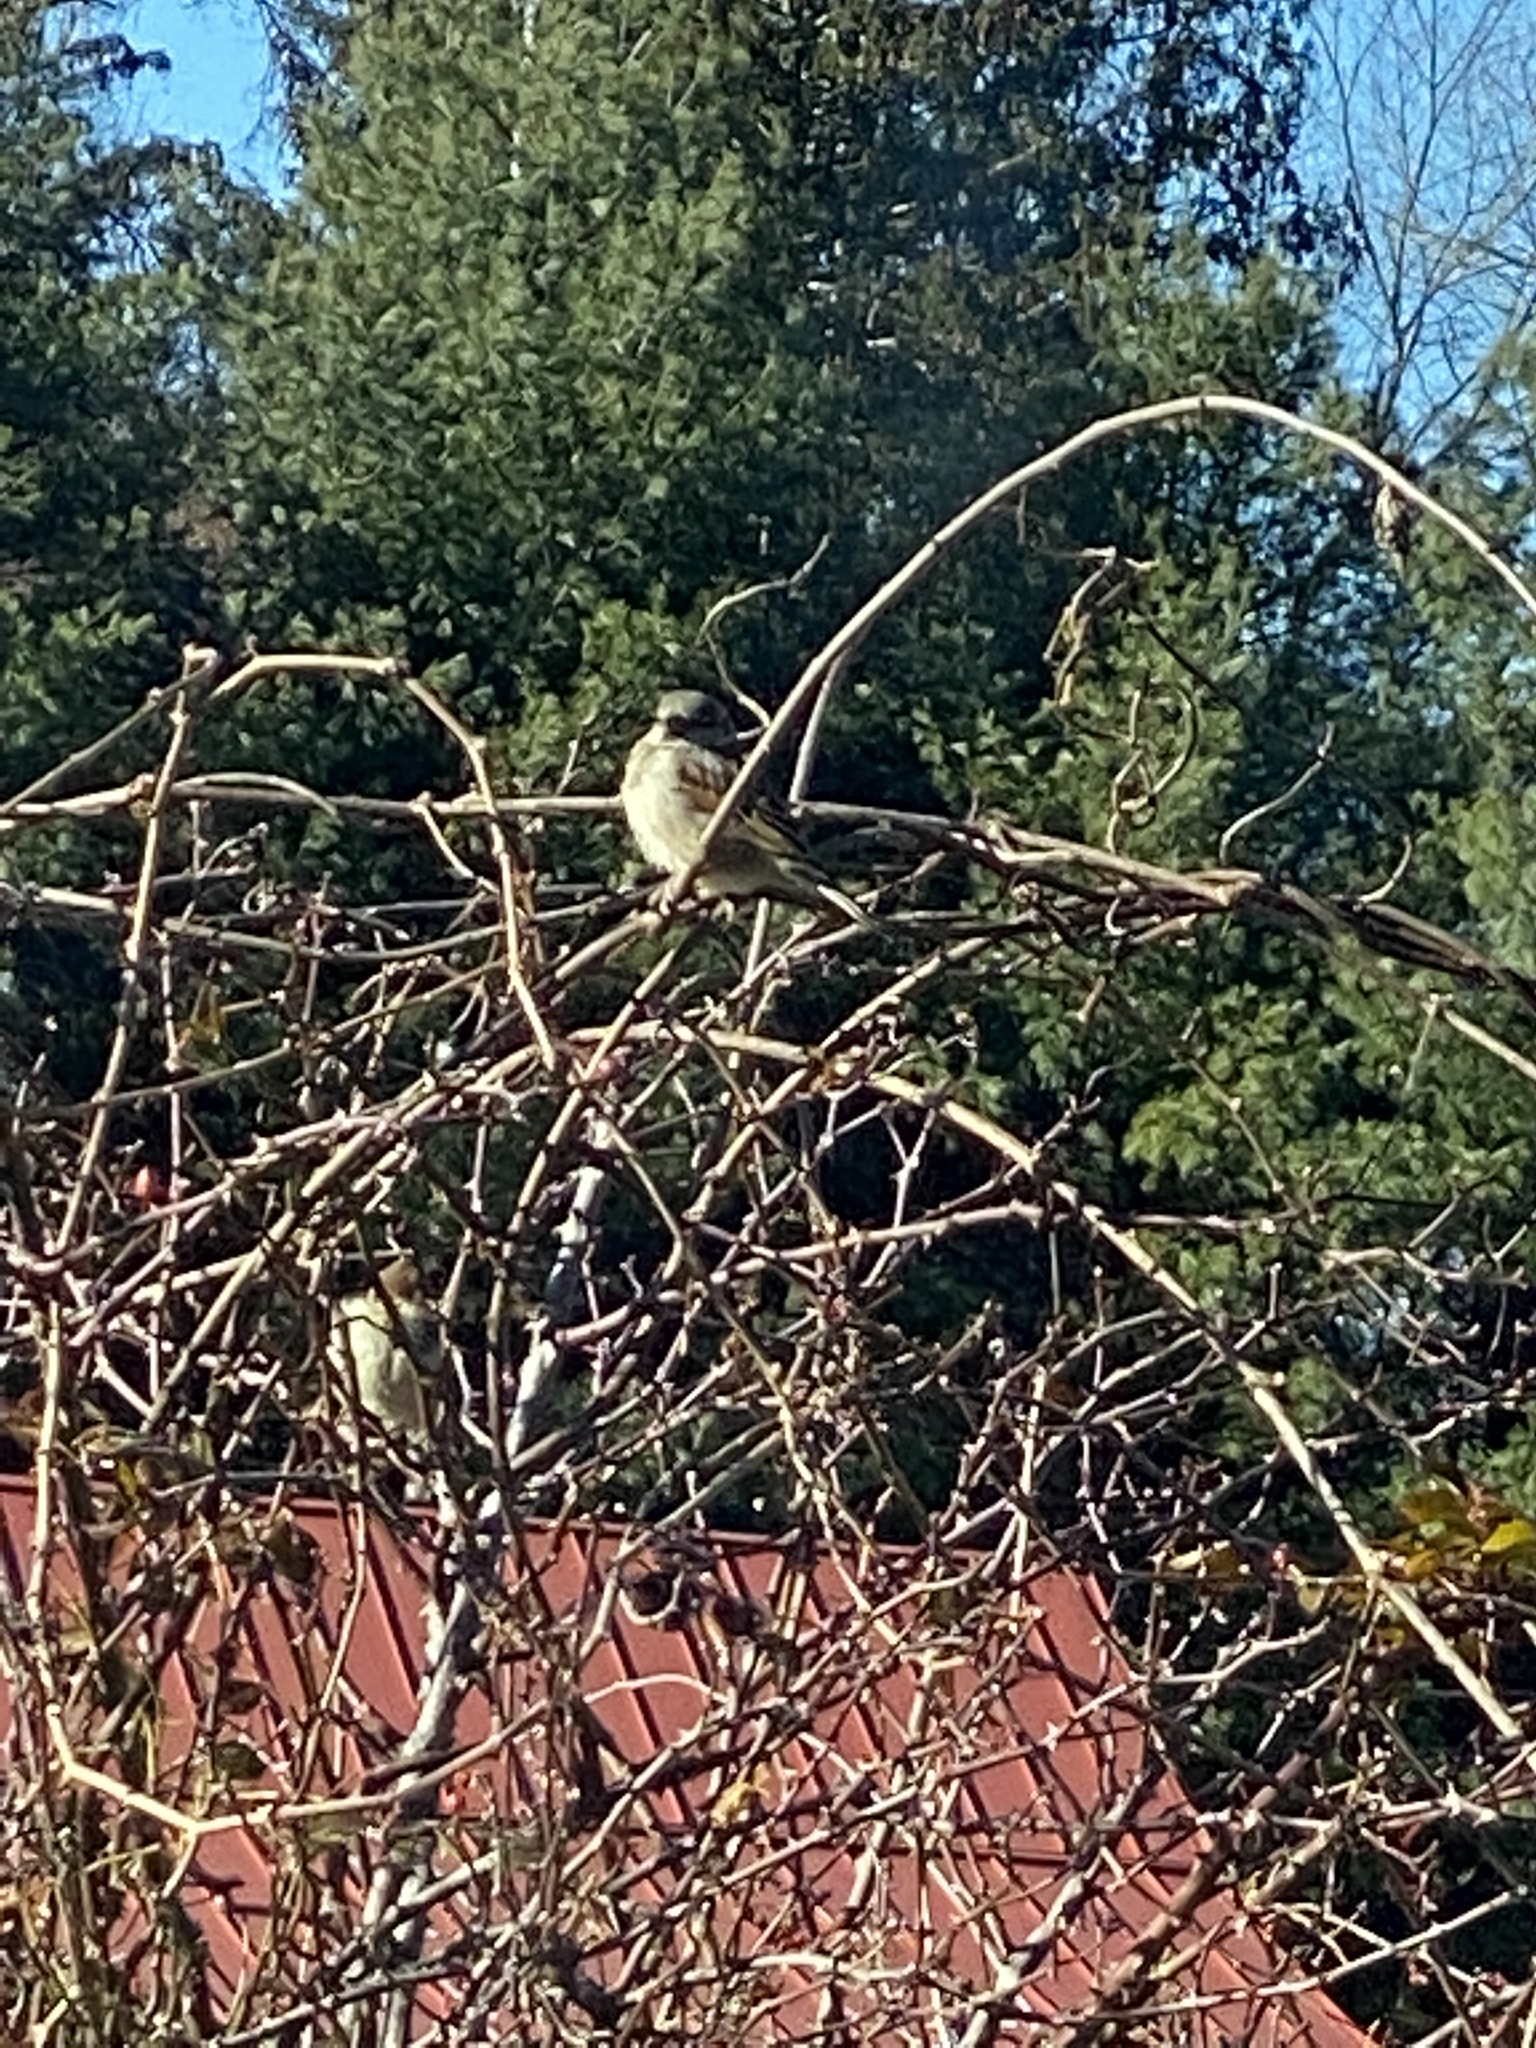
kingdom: Animalia
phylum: Chordata
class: Aves
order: Passeriformes
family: Passeridae
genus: Passer
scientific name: Passer domesticus
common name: House sparrow
